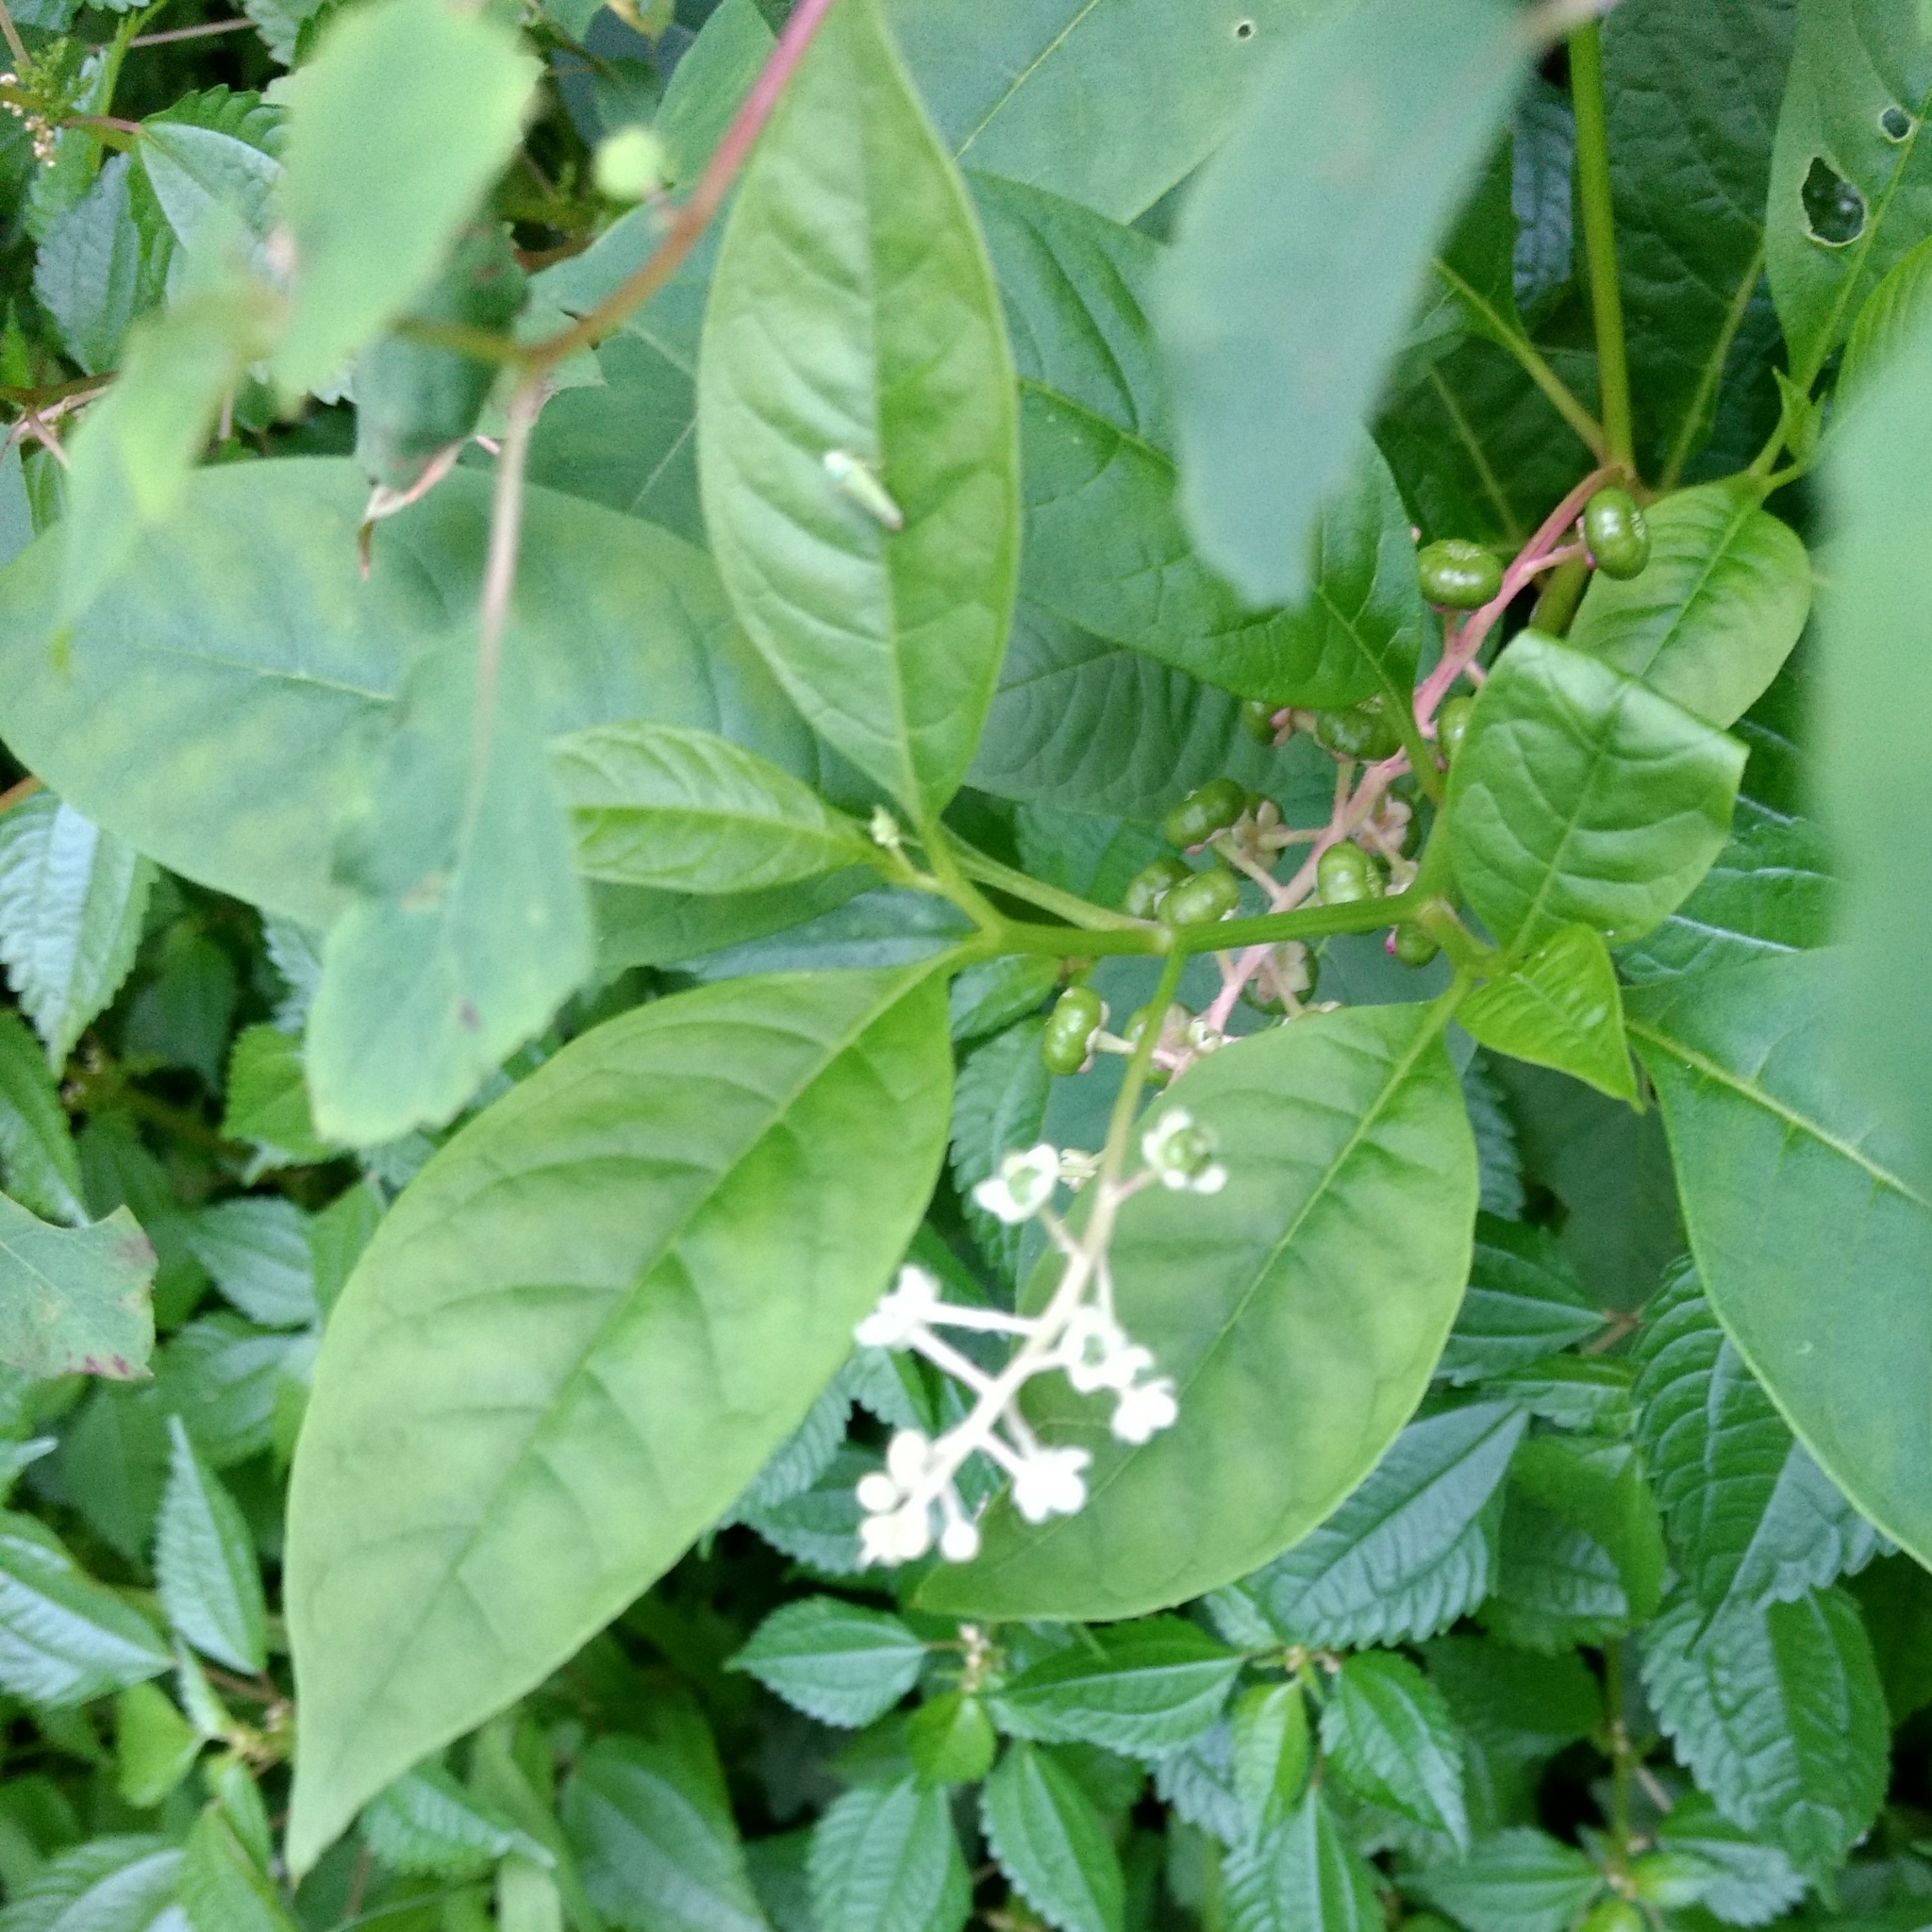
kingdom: Plantae
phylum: Tracheophyta
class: Magnoliopsida
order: Caryophyllales
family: Phytolaccaceae
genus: Phytolacca
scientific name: Phytolacca americana
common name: American pokeweed
